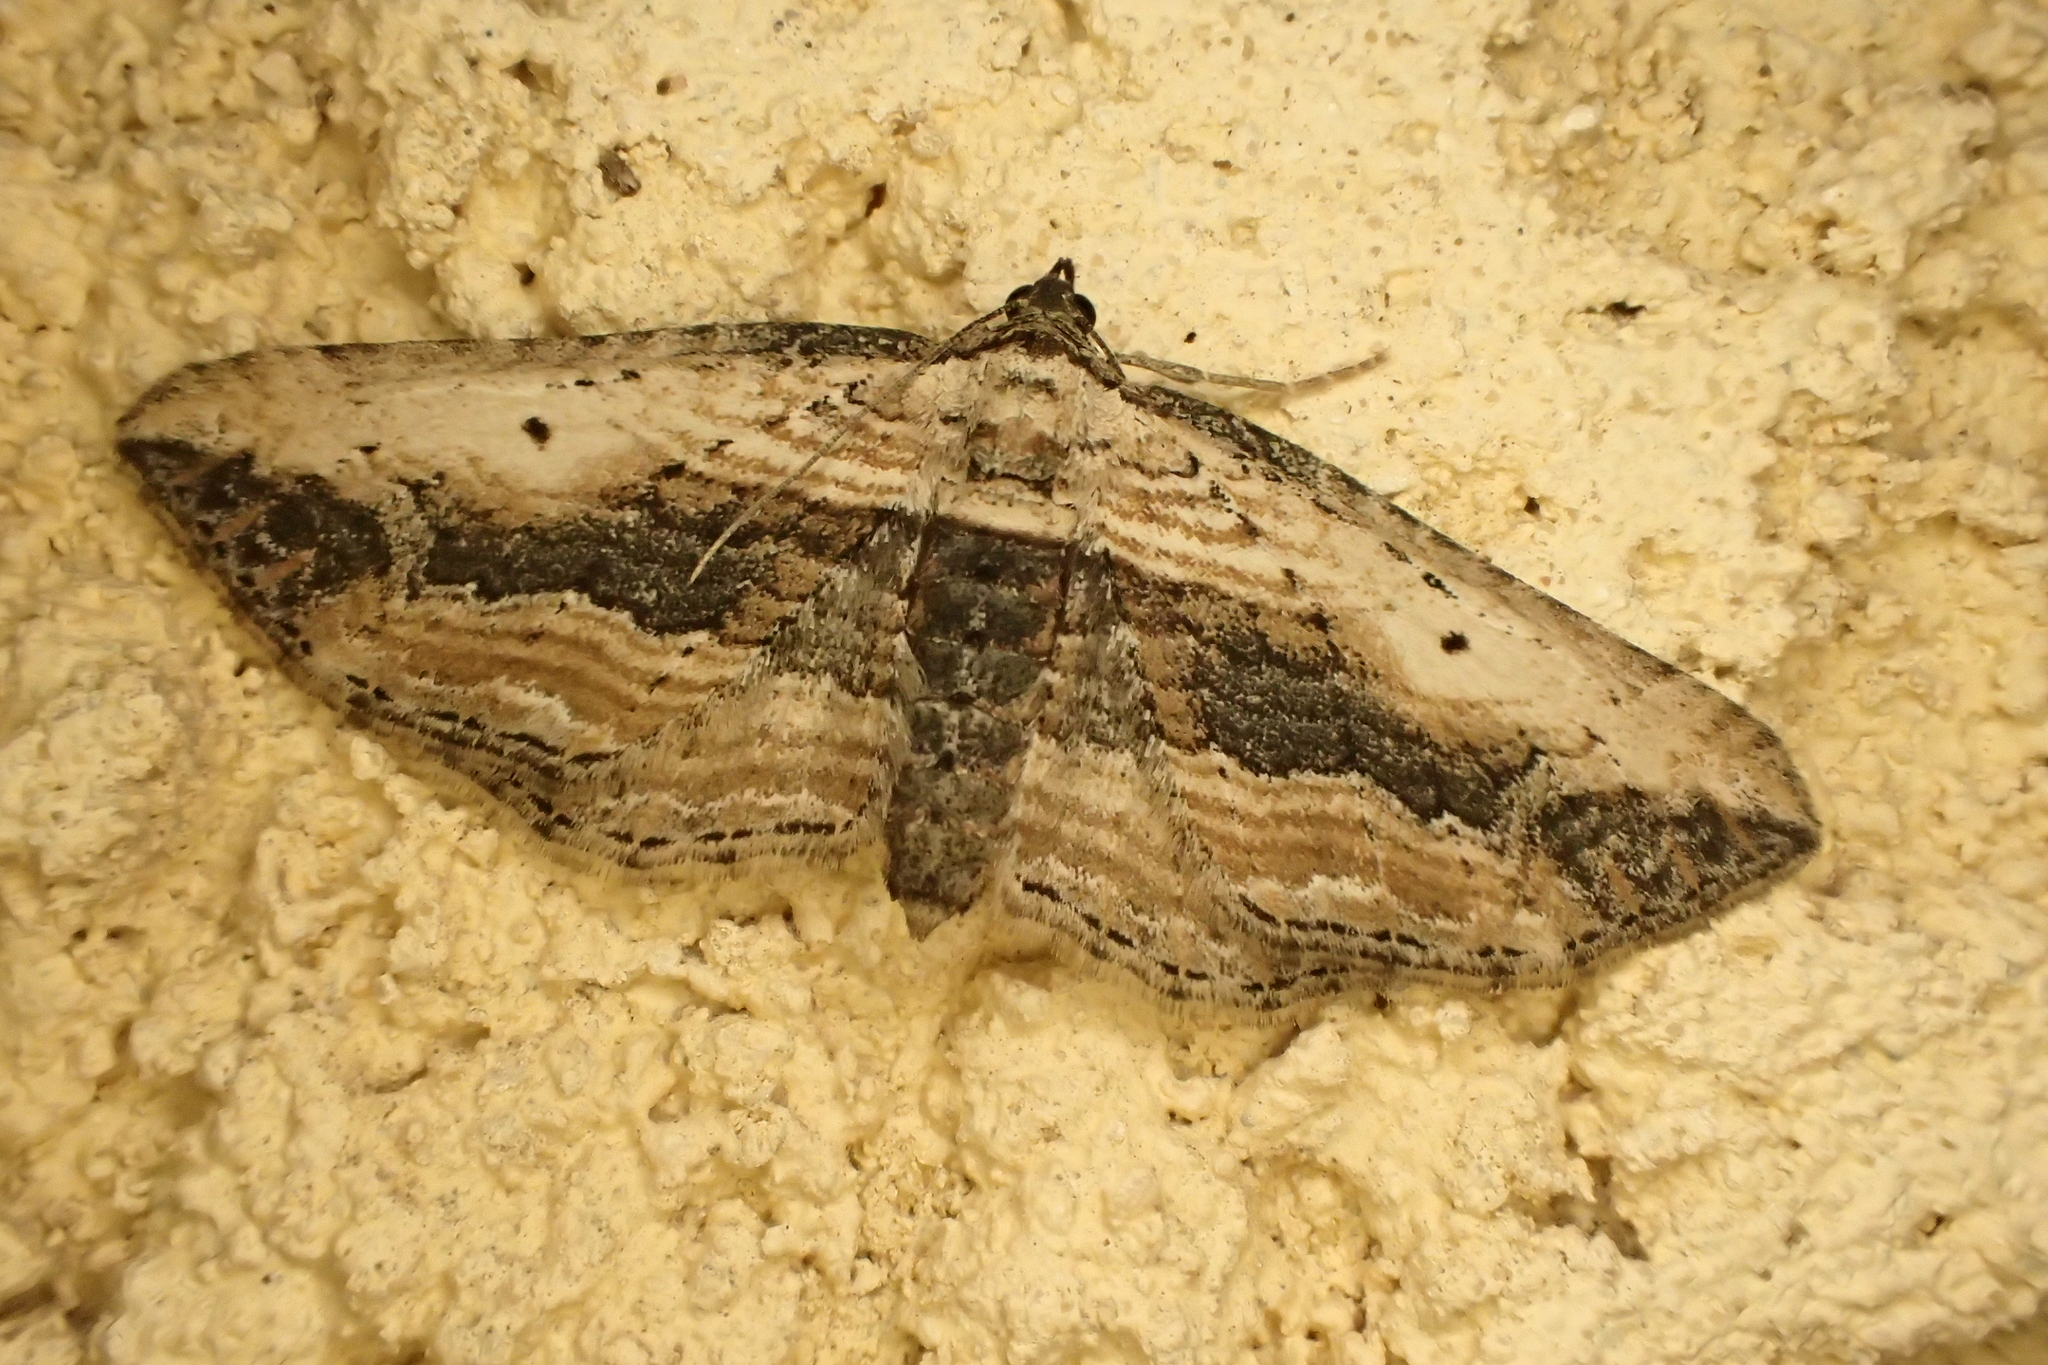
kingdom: Animalia
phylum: Arthropoda
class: Insecta
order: Lepidoptera
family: Geometridae
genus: Horisme
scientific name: Horisme vitalbata
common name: Small waved umber
